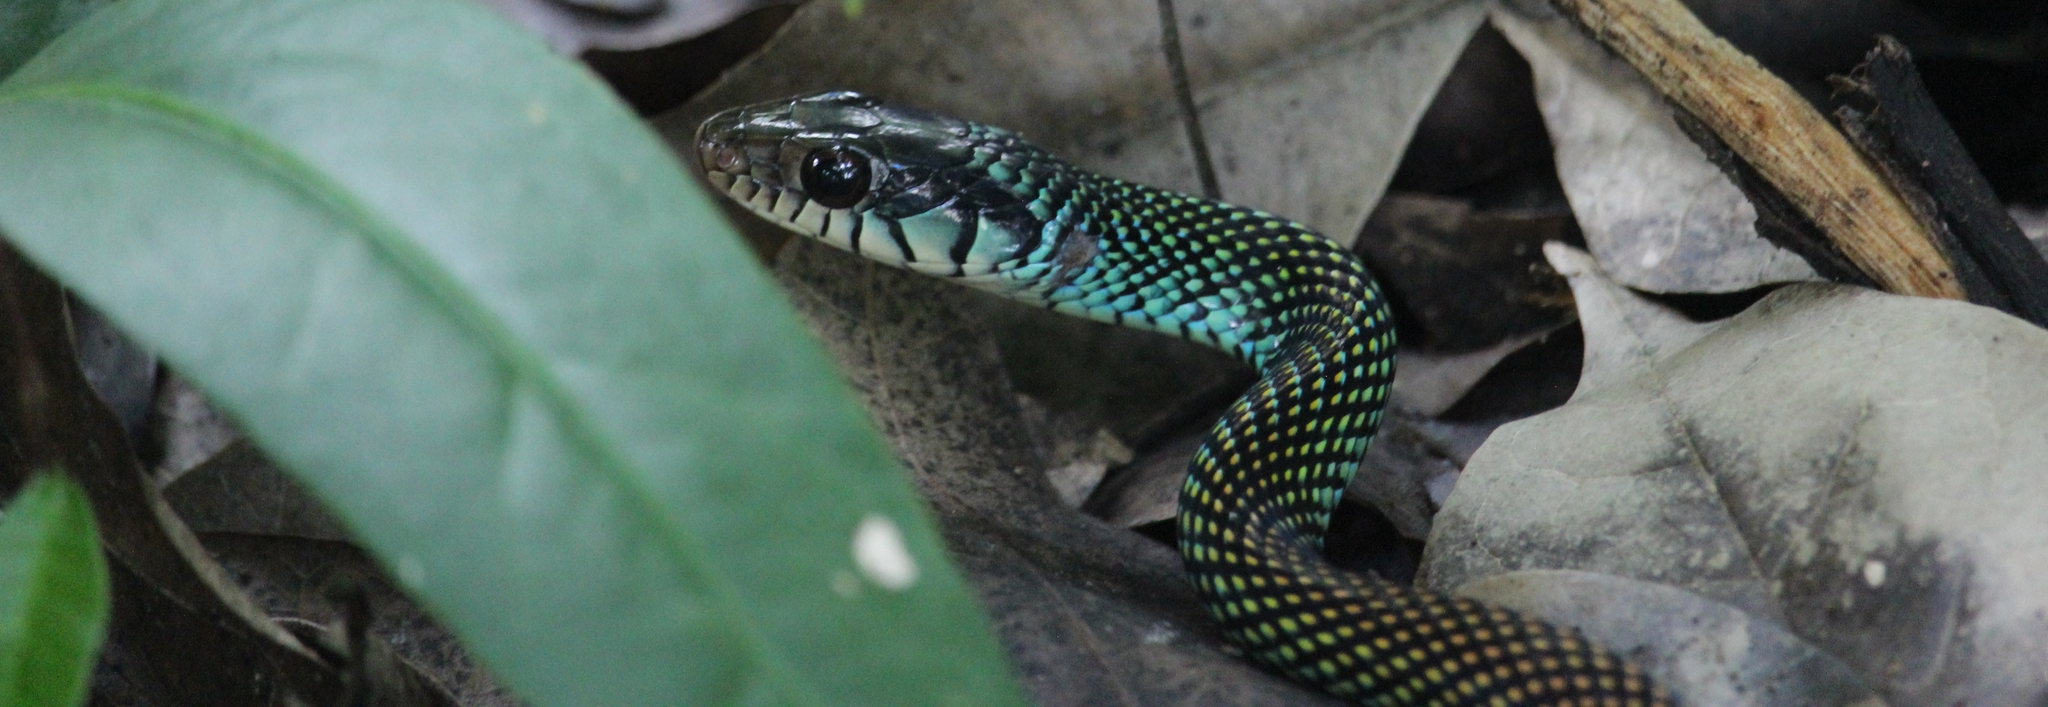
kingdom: Animalia
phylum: Chordata
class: Squamata
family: Colubridae
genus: Drymobius
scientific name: Drymobius margaritiferus
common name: Central american speckled racer
